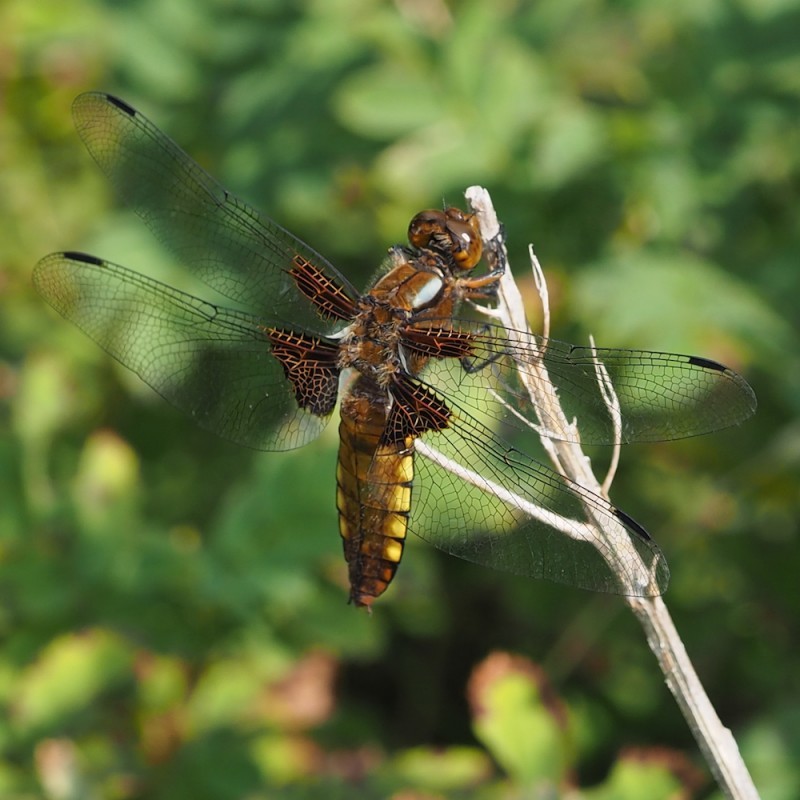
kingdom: Animalia
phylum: Arthropoda
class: Insecta
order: Odonata
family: Libellulidae
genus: Libellula
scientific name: Libellula depressa
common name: Broad-bodied chaser
